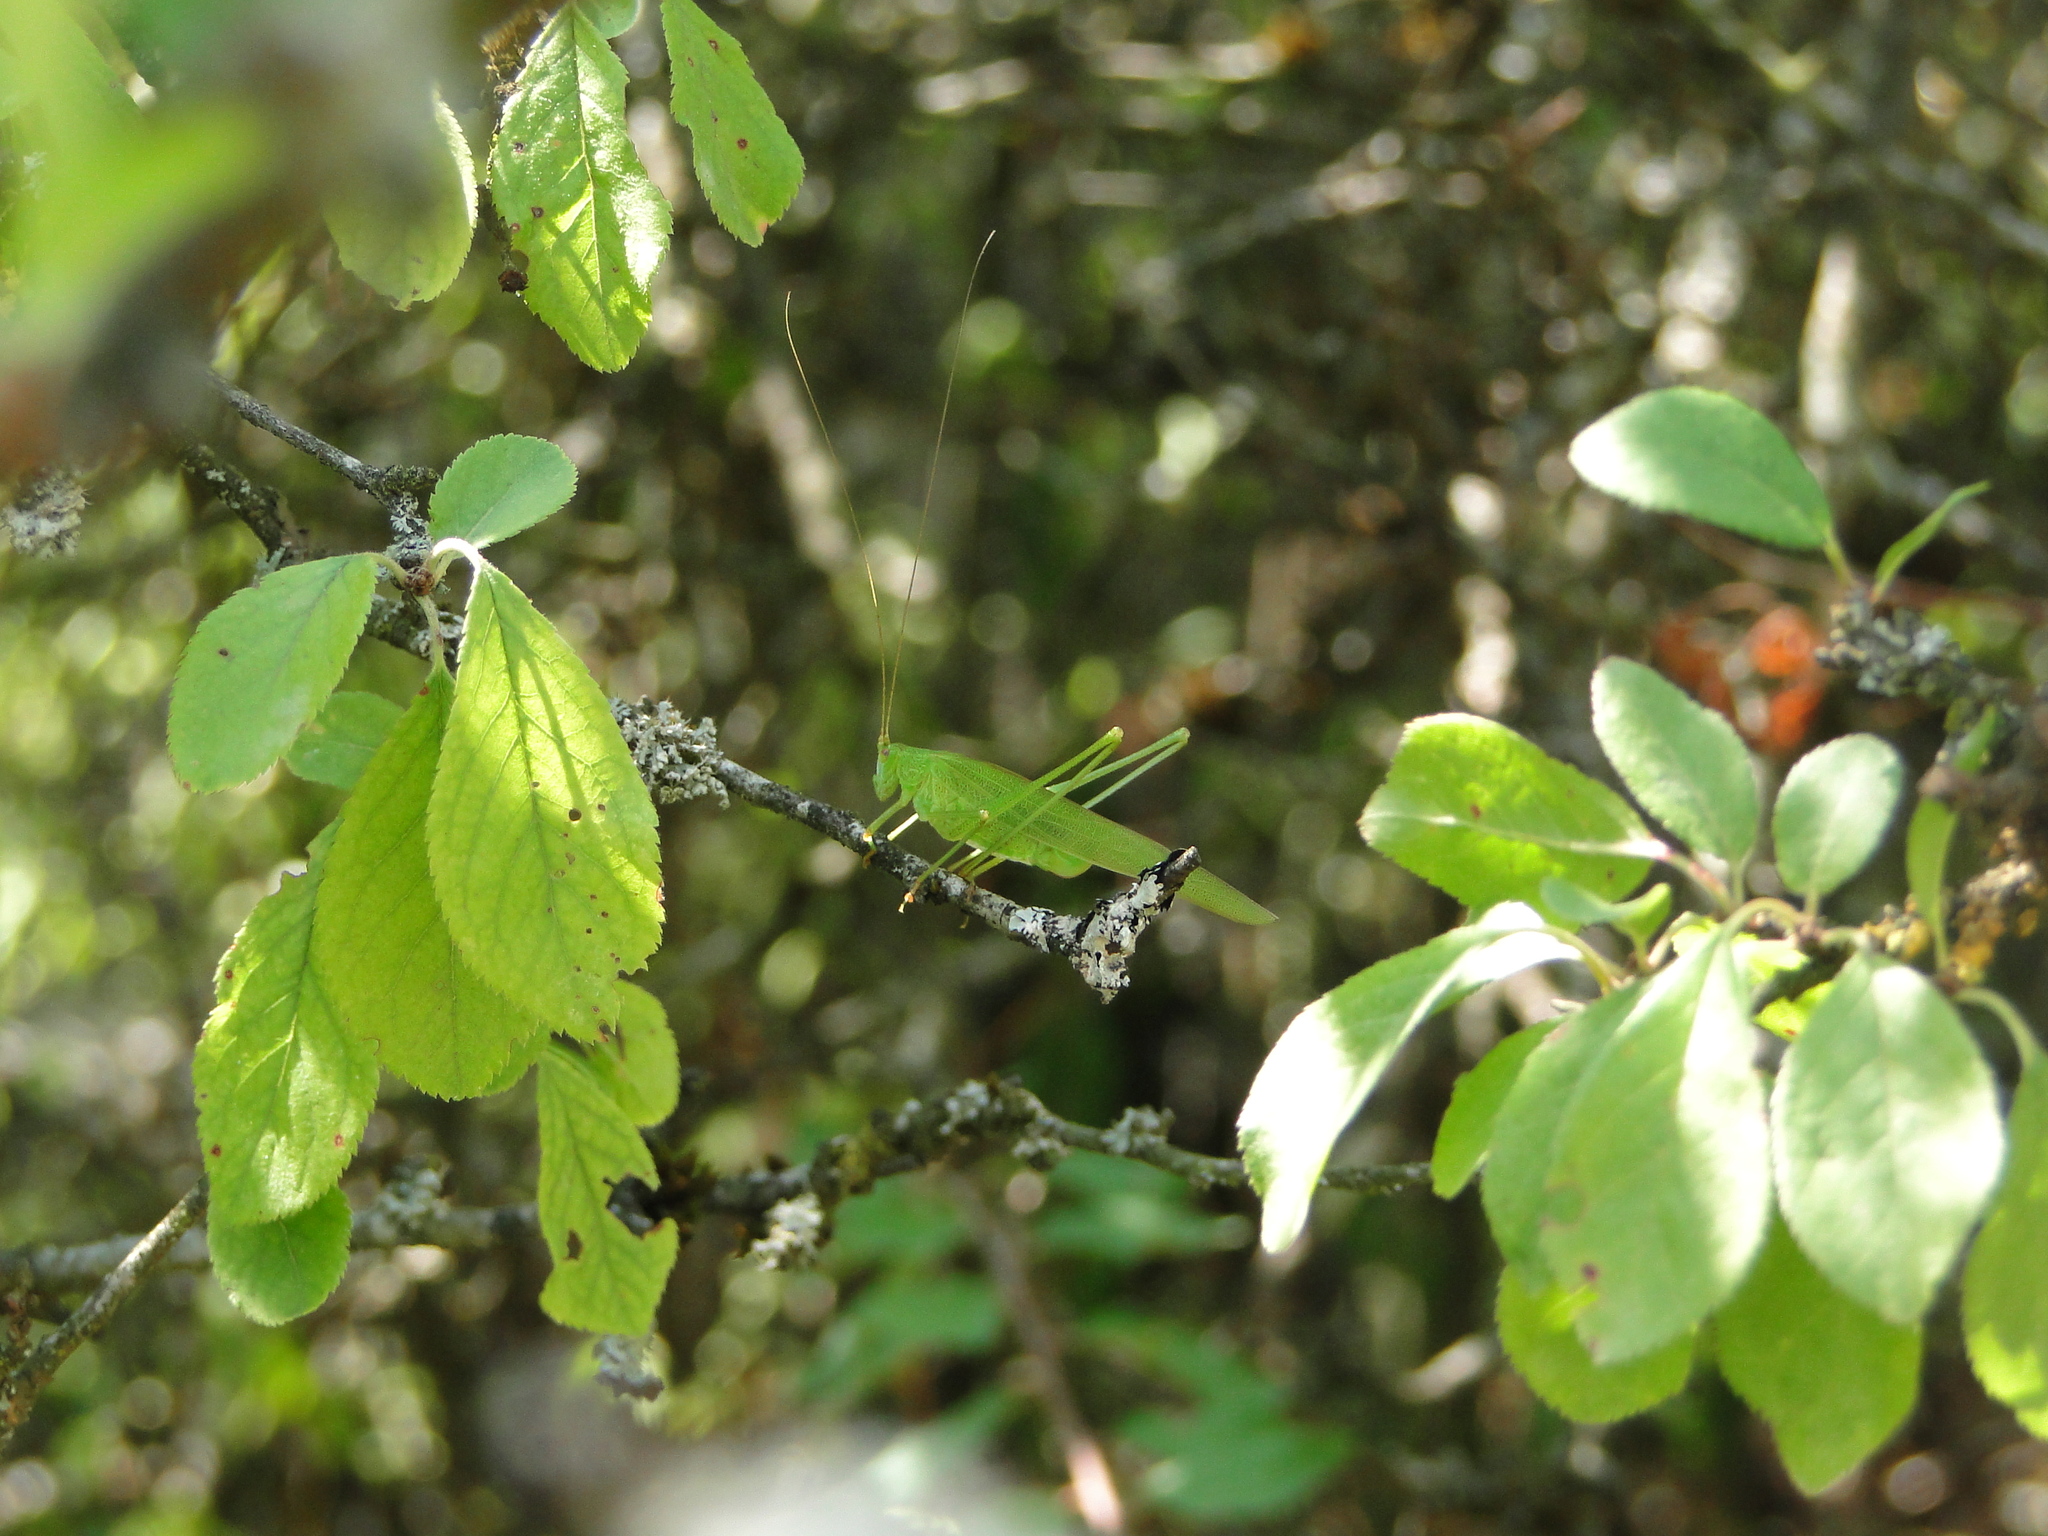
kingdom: Animalia
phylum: Arthropoda
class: Insecta
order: Orthoptera
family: Tettigoniidae
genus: Phaneroptera
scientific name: Phaneroptera falcata
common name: Sickle-bearing bush-cricket
